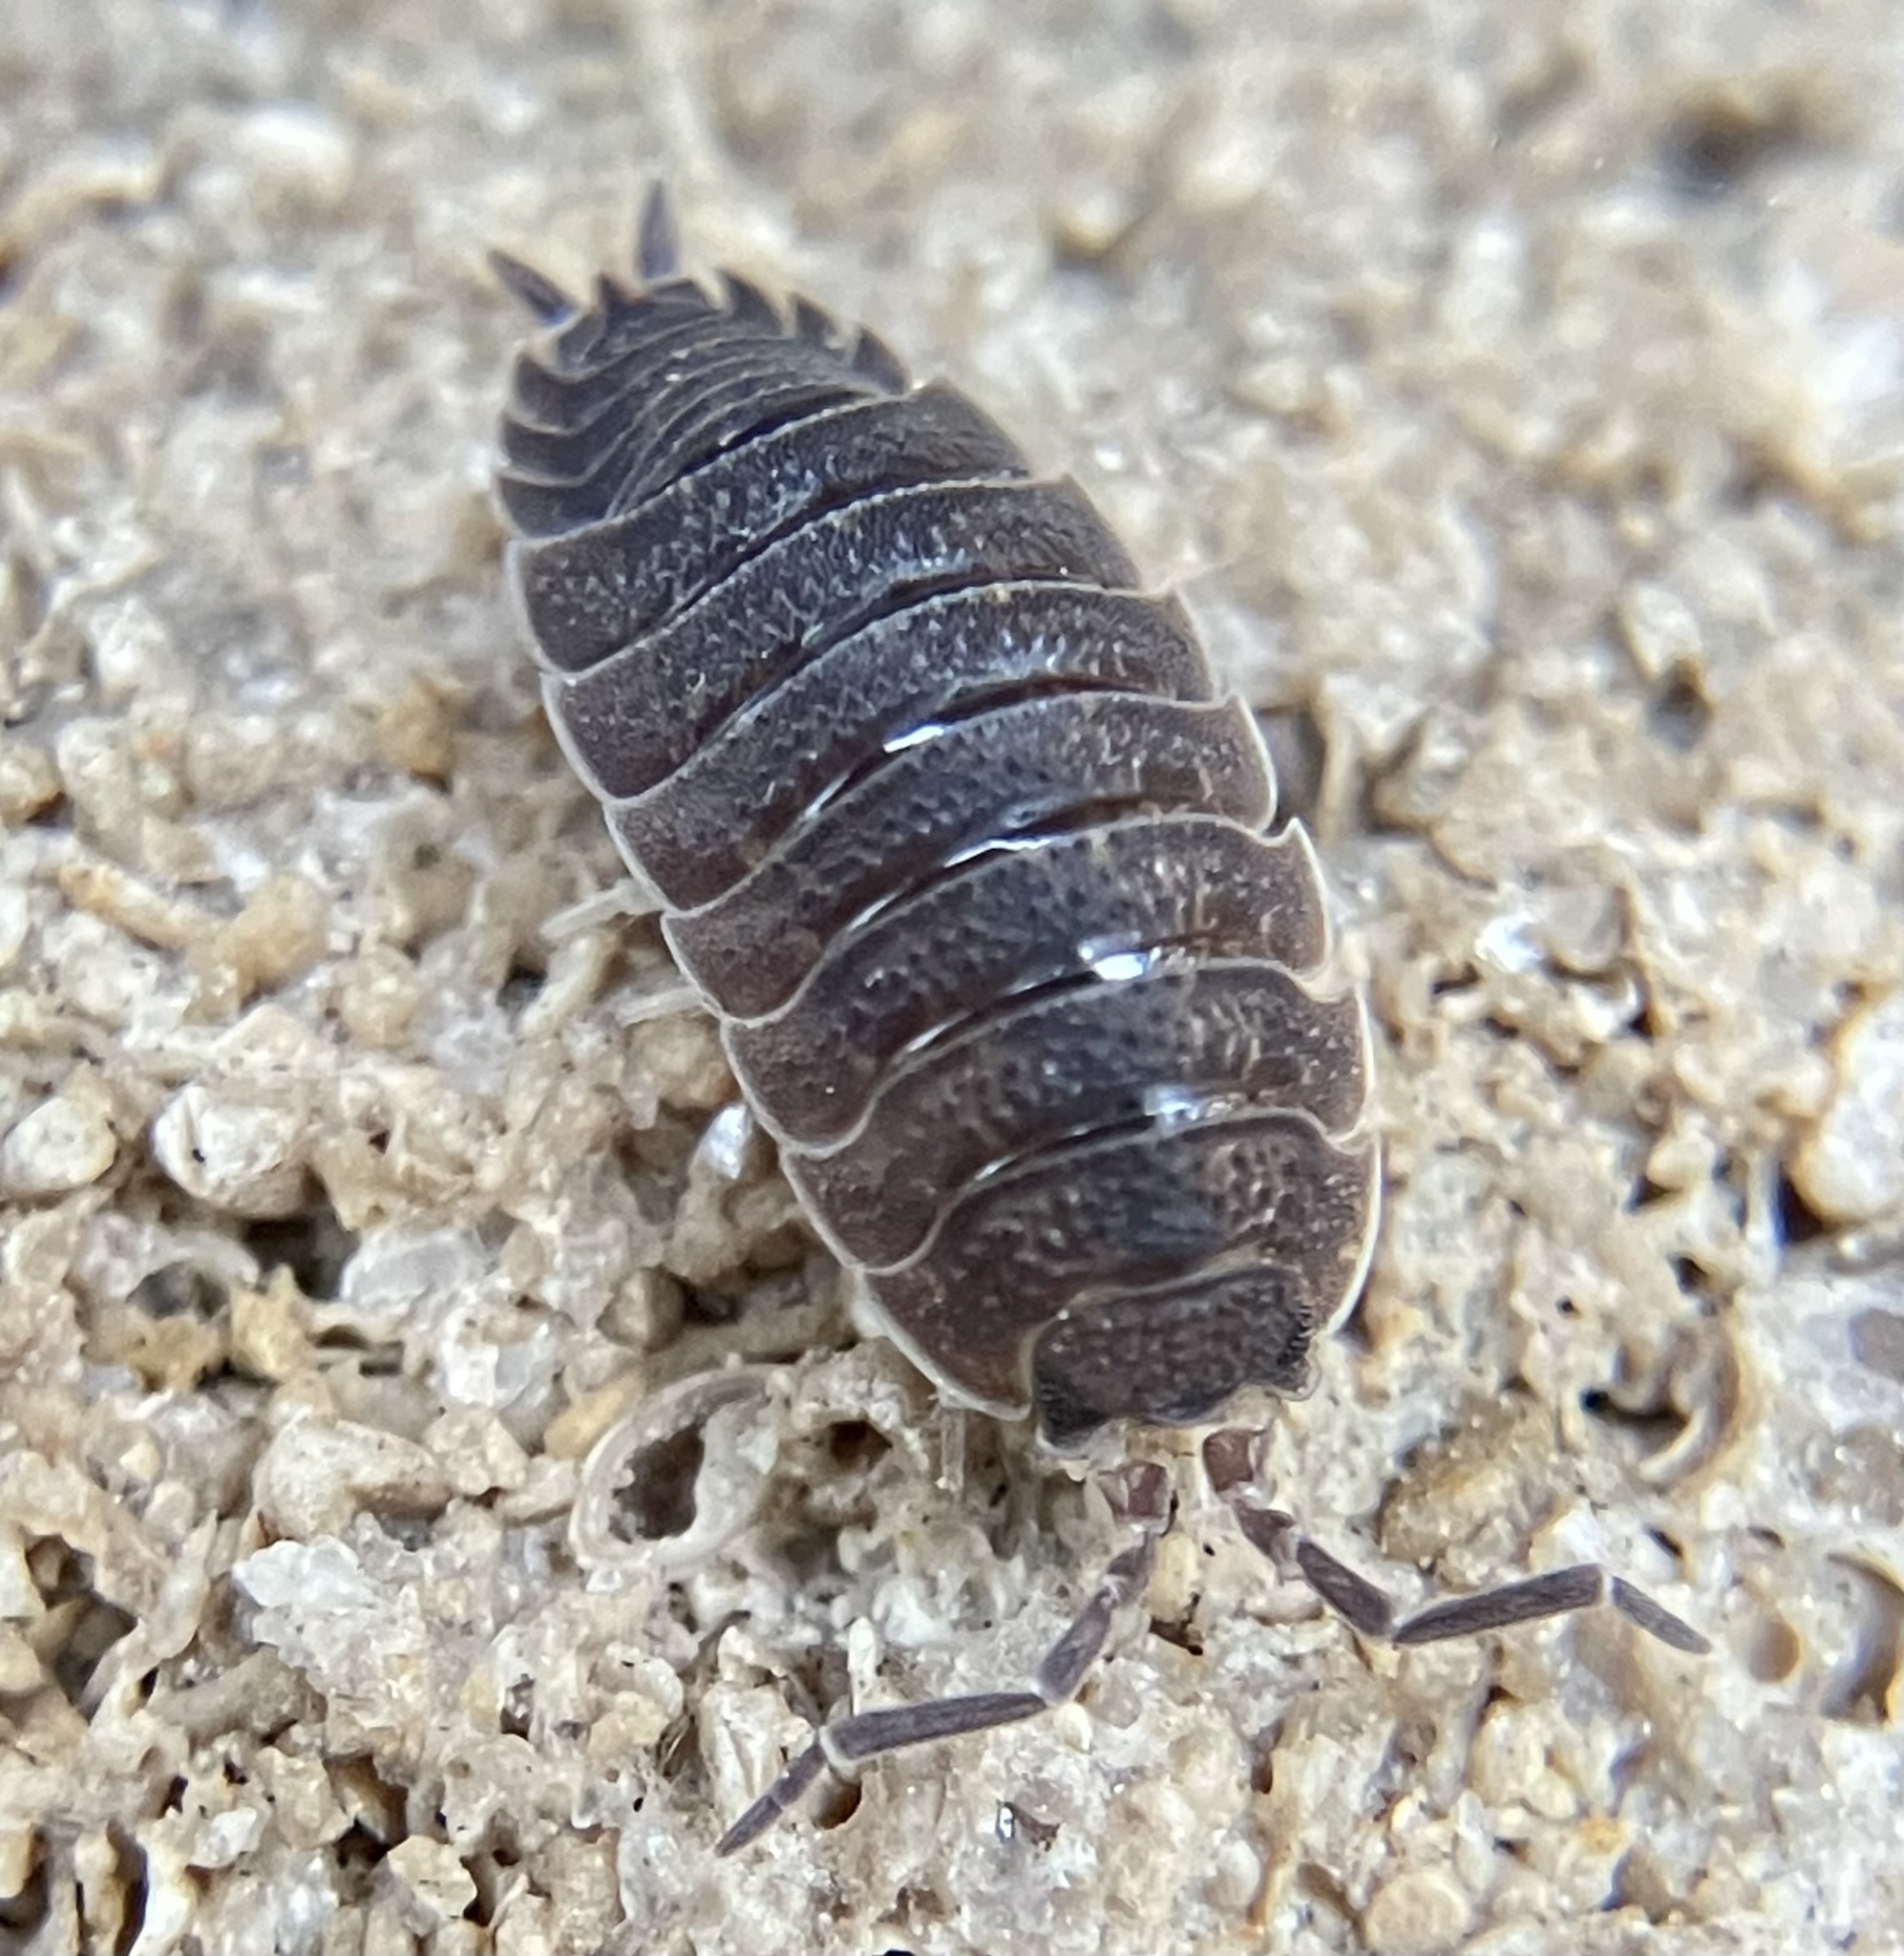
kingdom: Animalia
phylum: Arthropoda
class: Malacostraca
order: Isopoda
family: Porcellionidae
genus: Porcellio
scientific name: Porcellio scaber
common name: Common rough woodlouse
